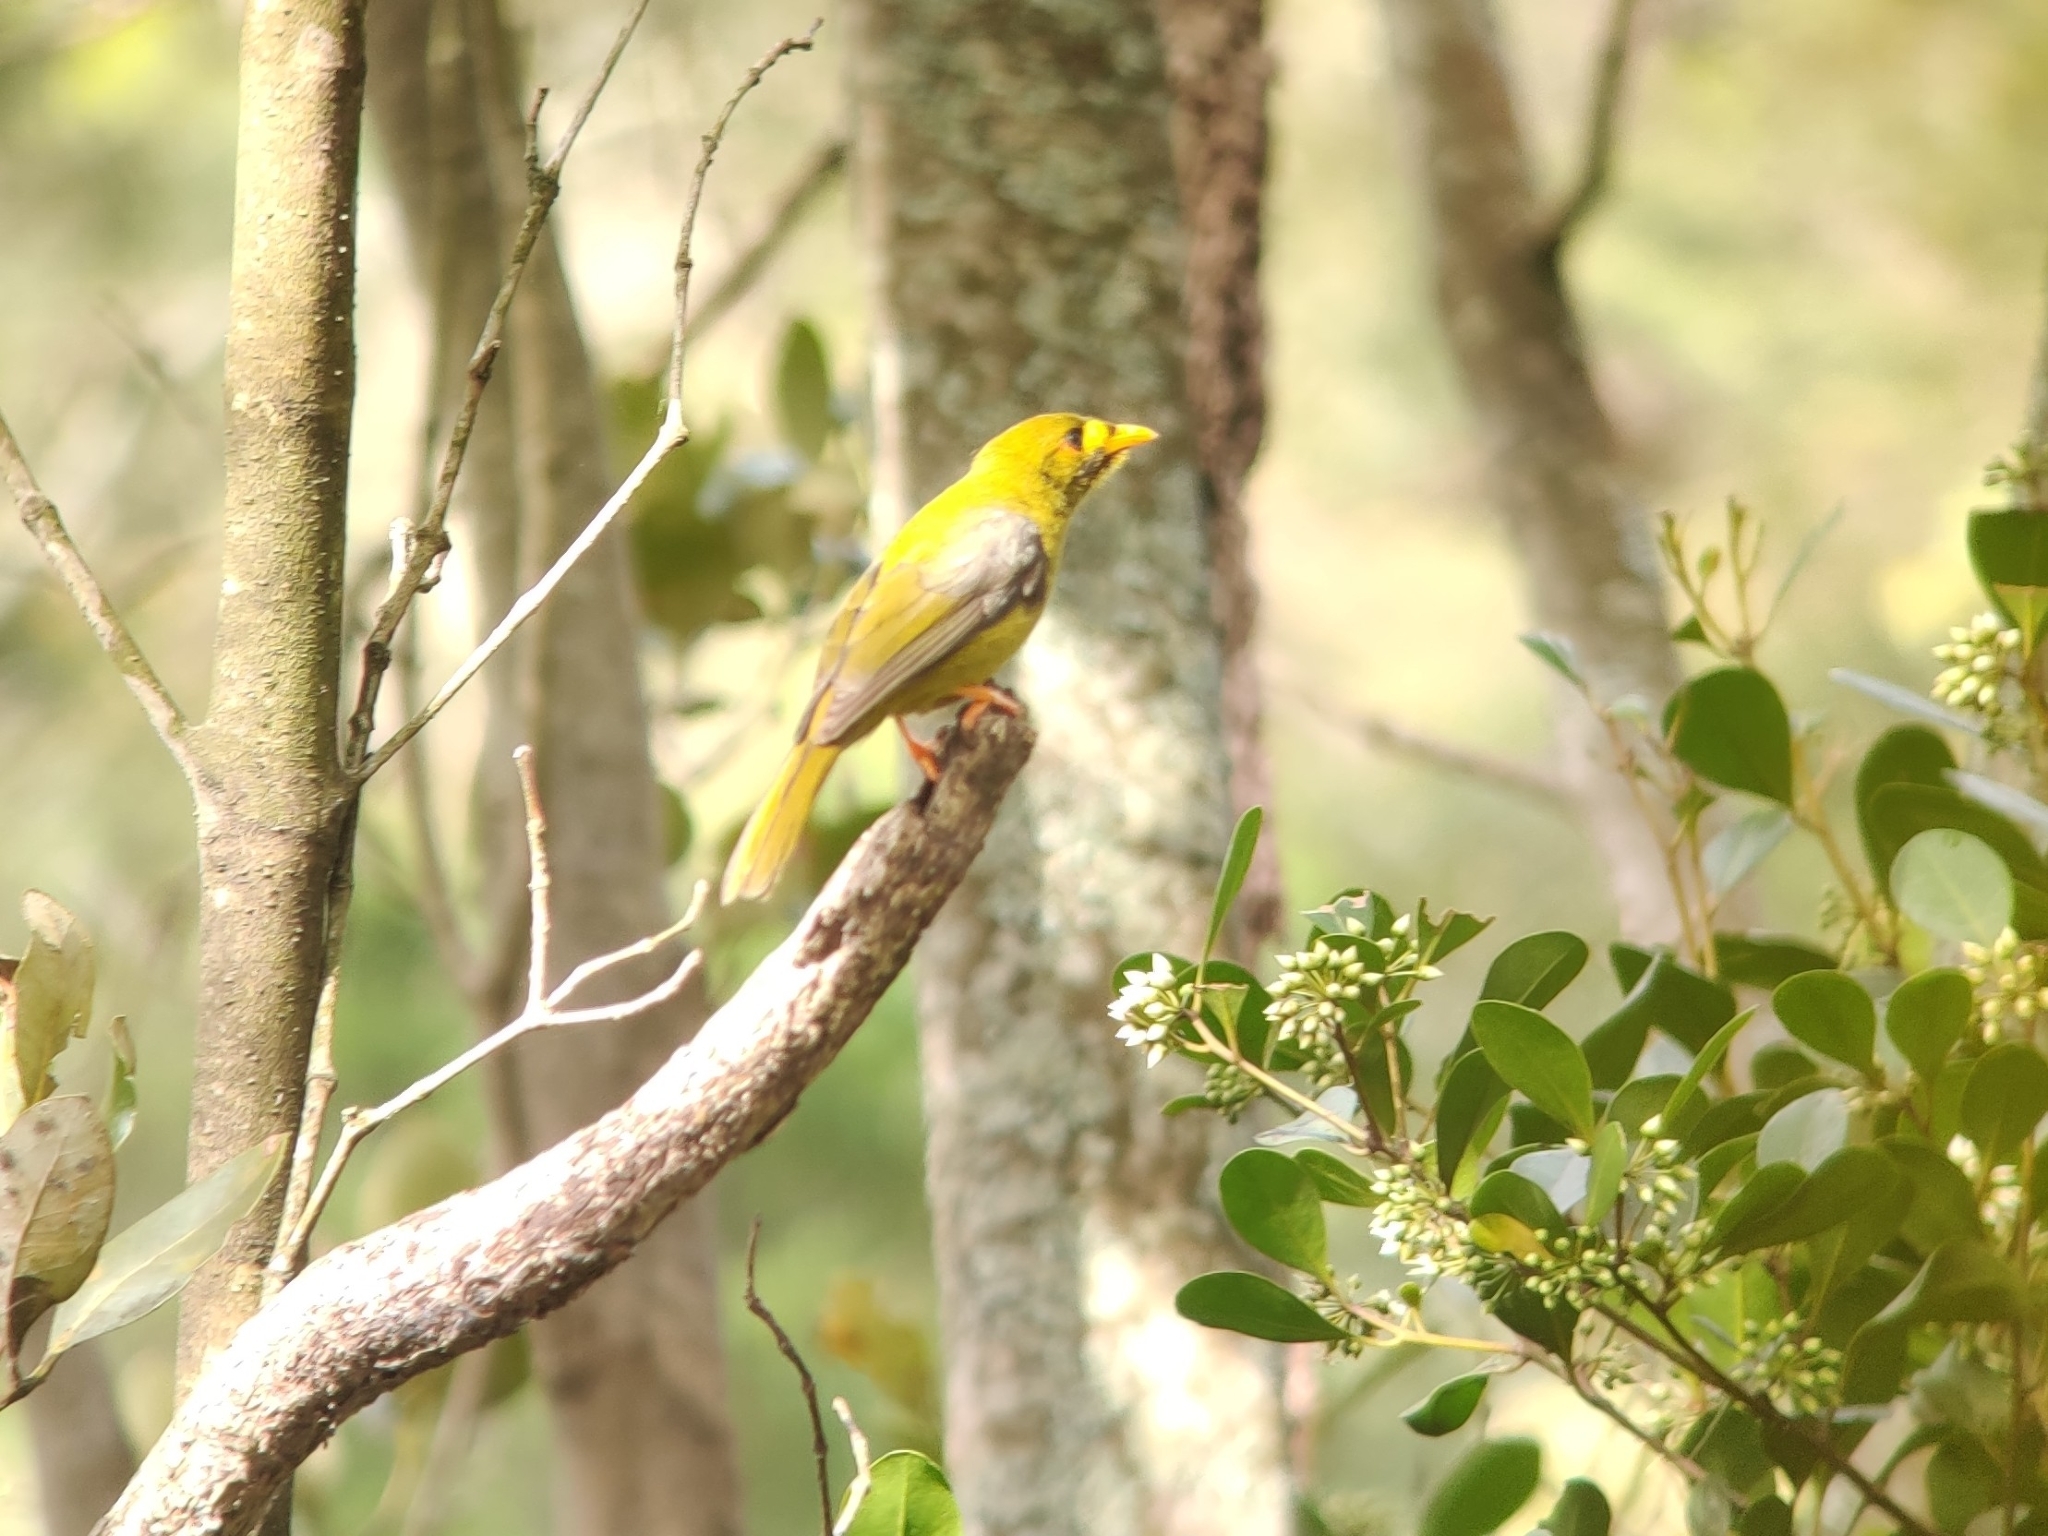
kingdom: Animalia
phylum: Chordata
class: Aves
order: Passeriformes
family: Meliphagidae
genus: Manorina
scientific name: Manorina melanophrys
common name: Bell miner
